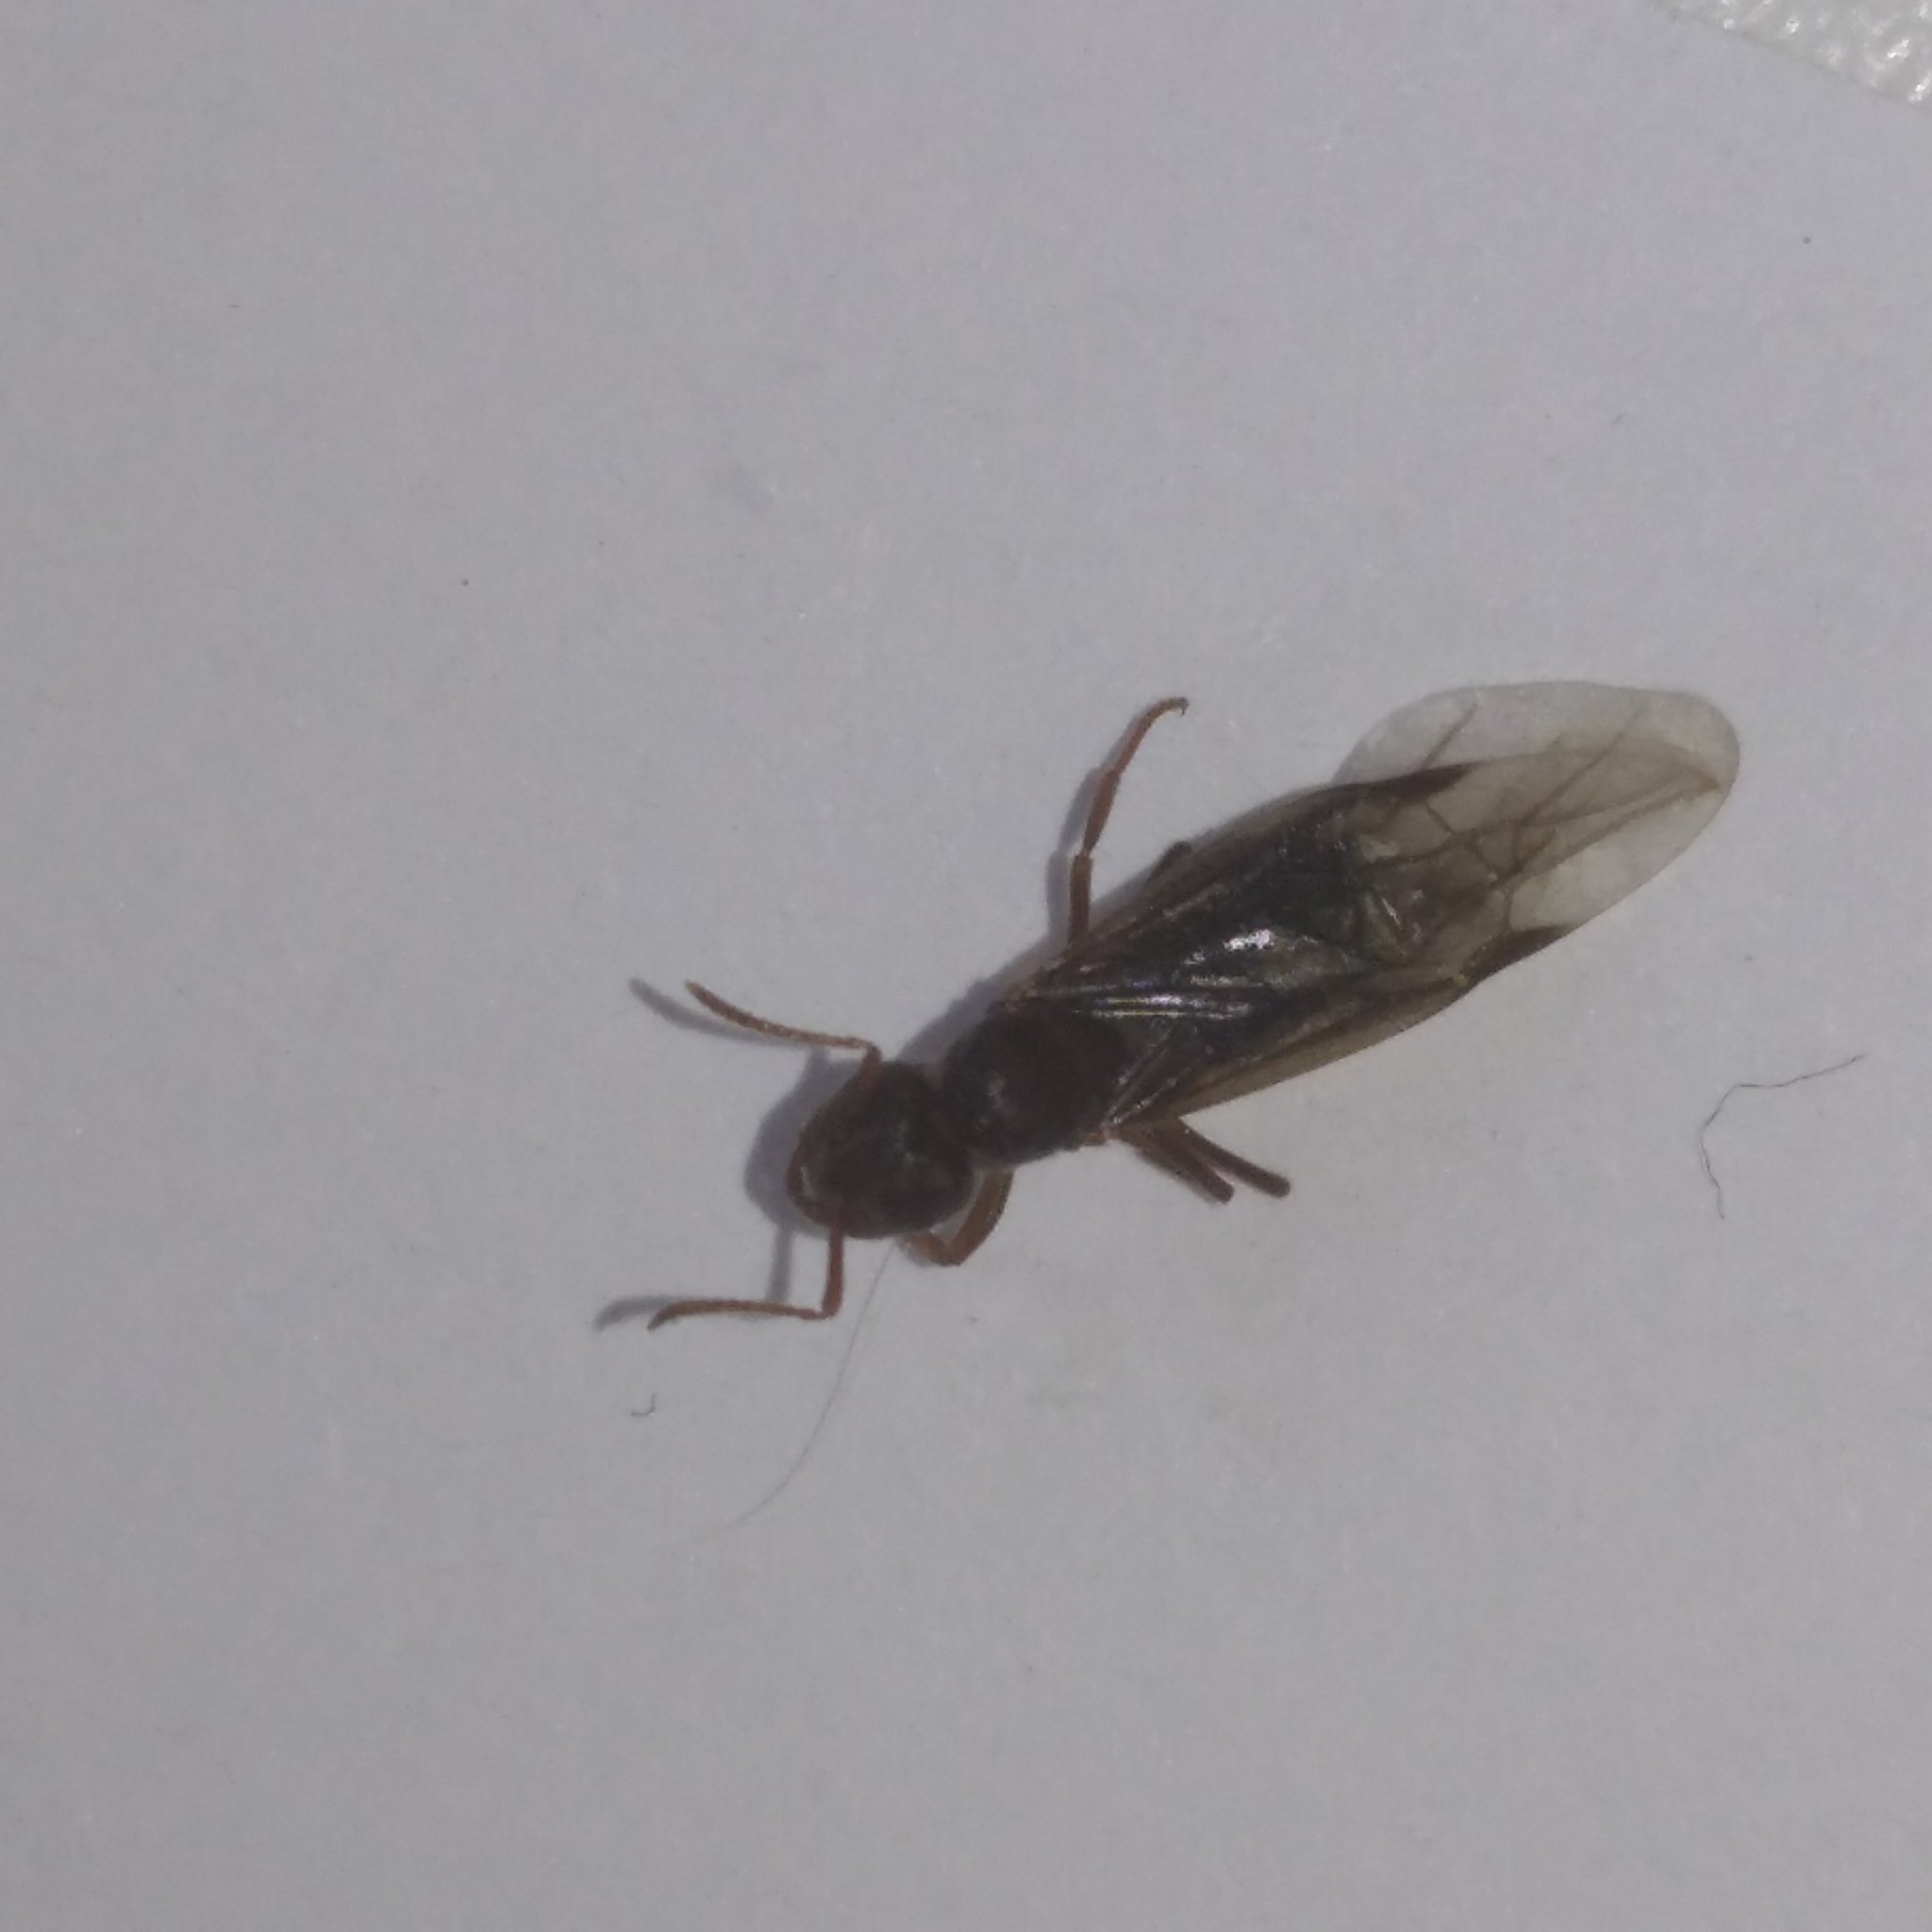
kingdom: Animalia
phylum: Arthropoda
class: Insecta
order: Hymenoptera
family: Formicidae
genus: Myrmica
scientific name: Myrmica
